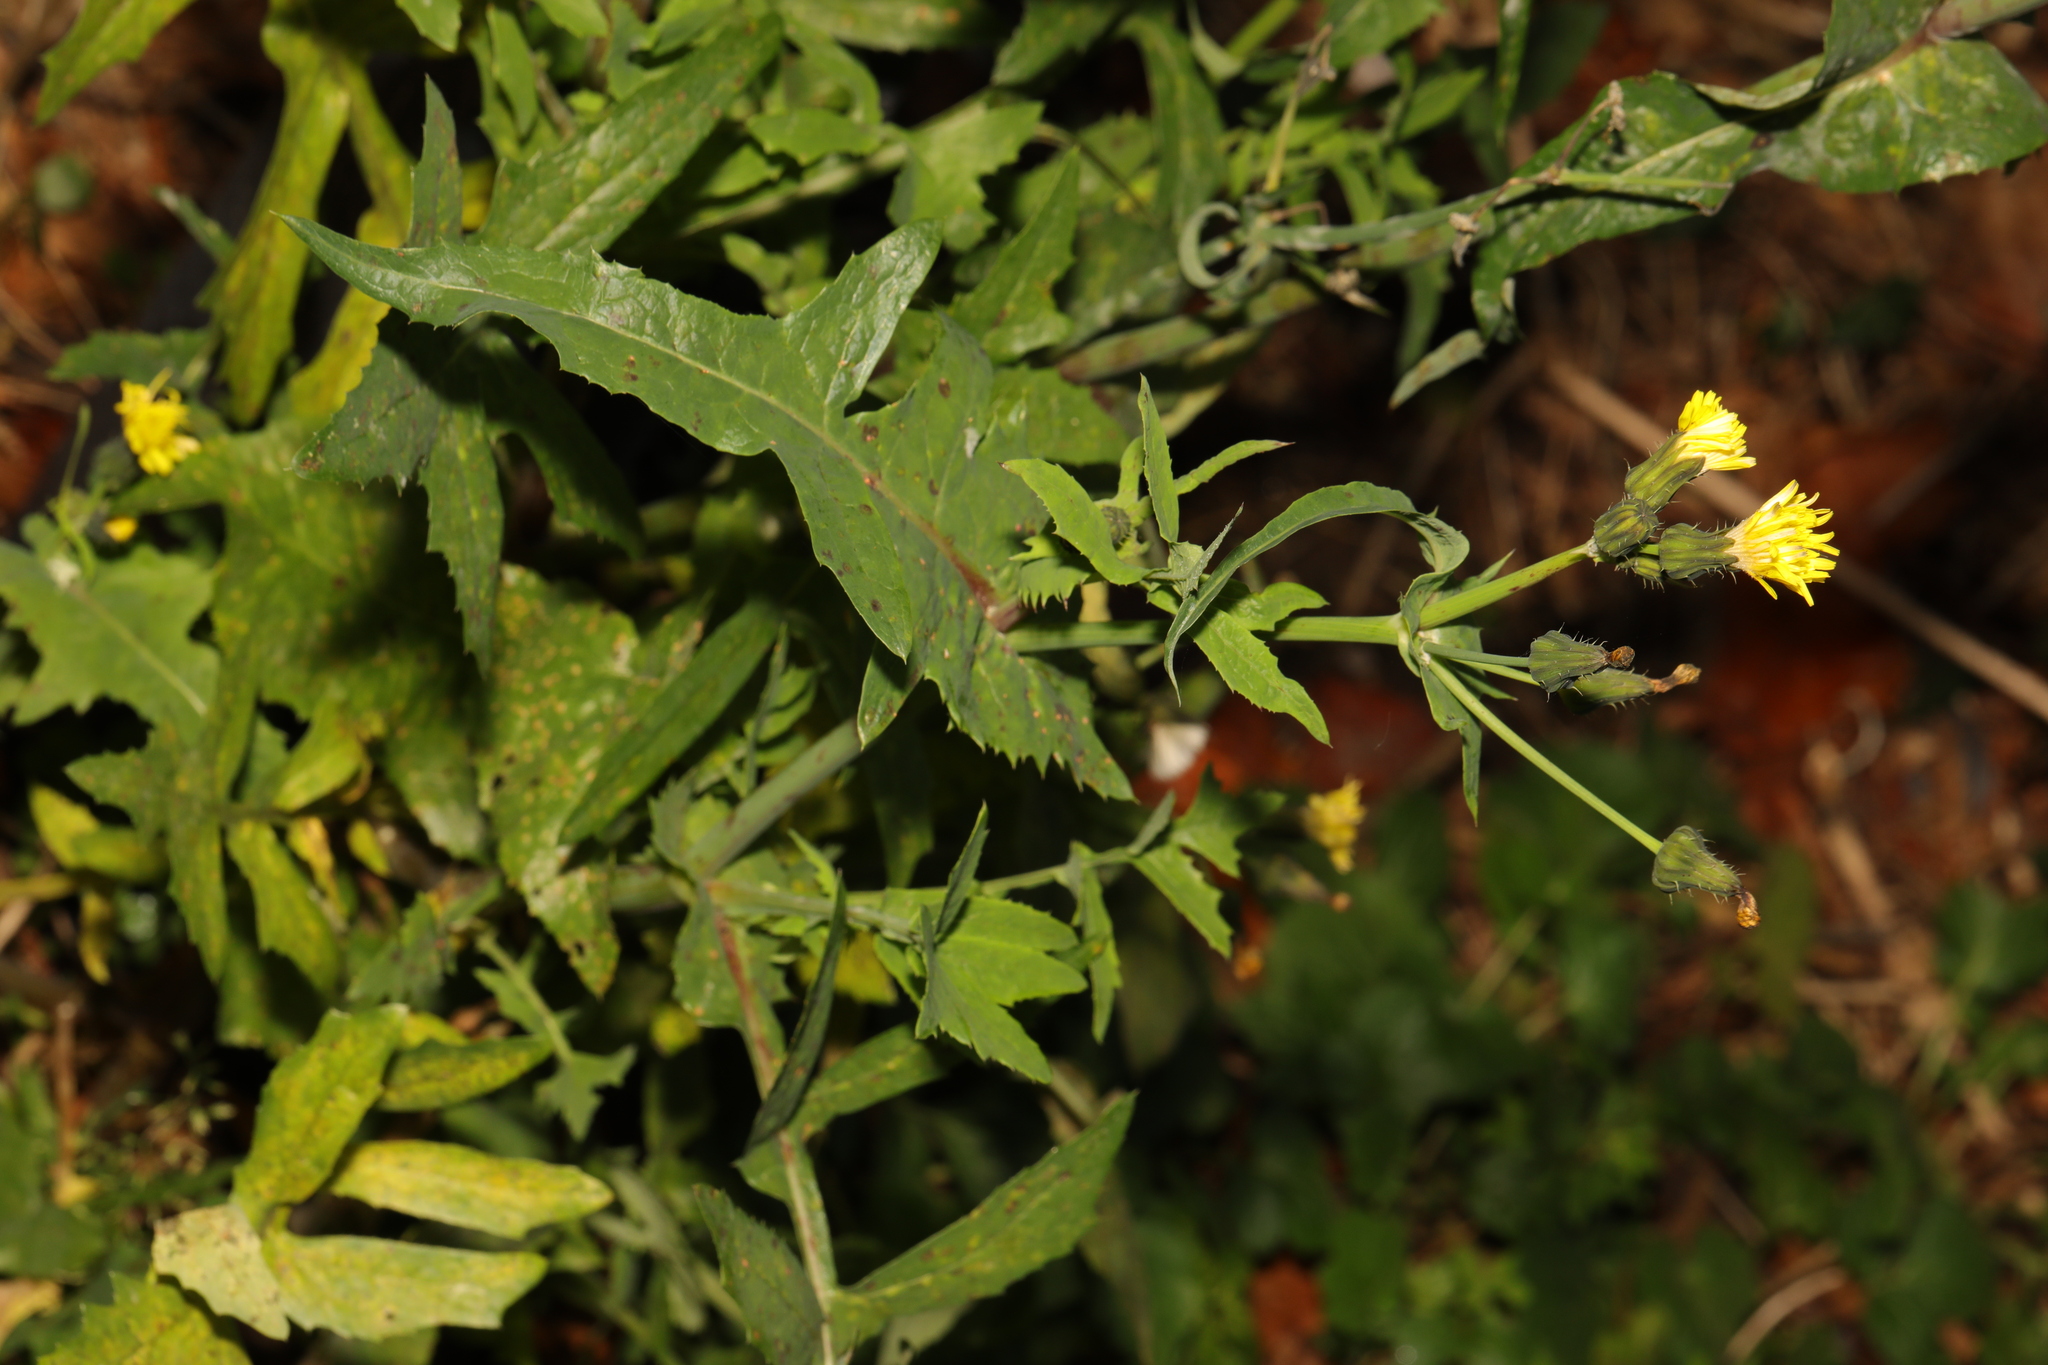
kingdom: Plantae
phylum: Tracheophyta
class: Magnoliopsida
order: Asterales
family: Asteraceae
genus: Sonchus
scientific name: Sonchus oleraceus
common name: Common sowthistle
